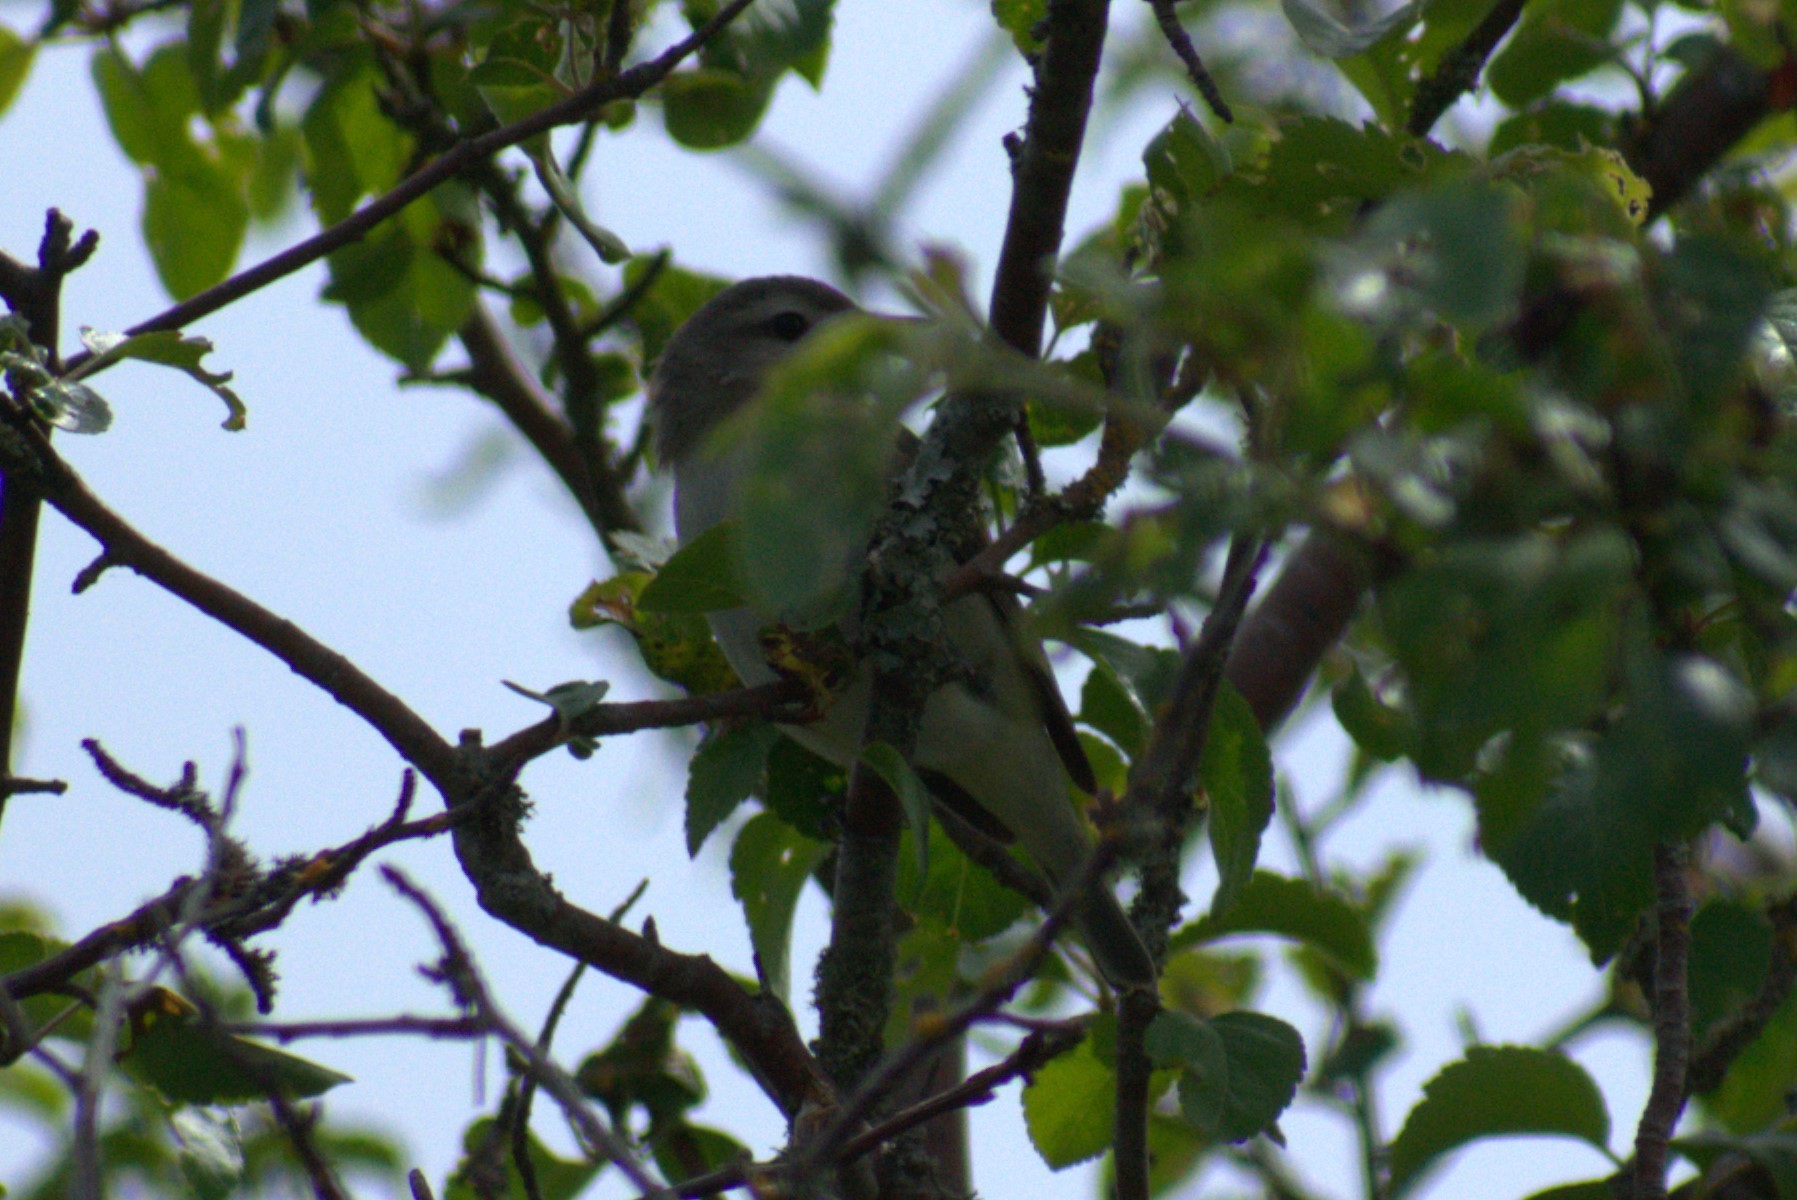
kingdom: Animalia
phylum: Chordata
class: Aves
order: Passeriformes
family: Vireonidae
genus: Vireo
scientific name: Vireo gilvus
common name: Warbling vireo
